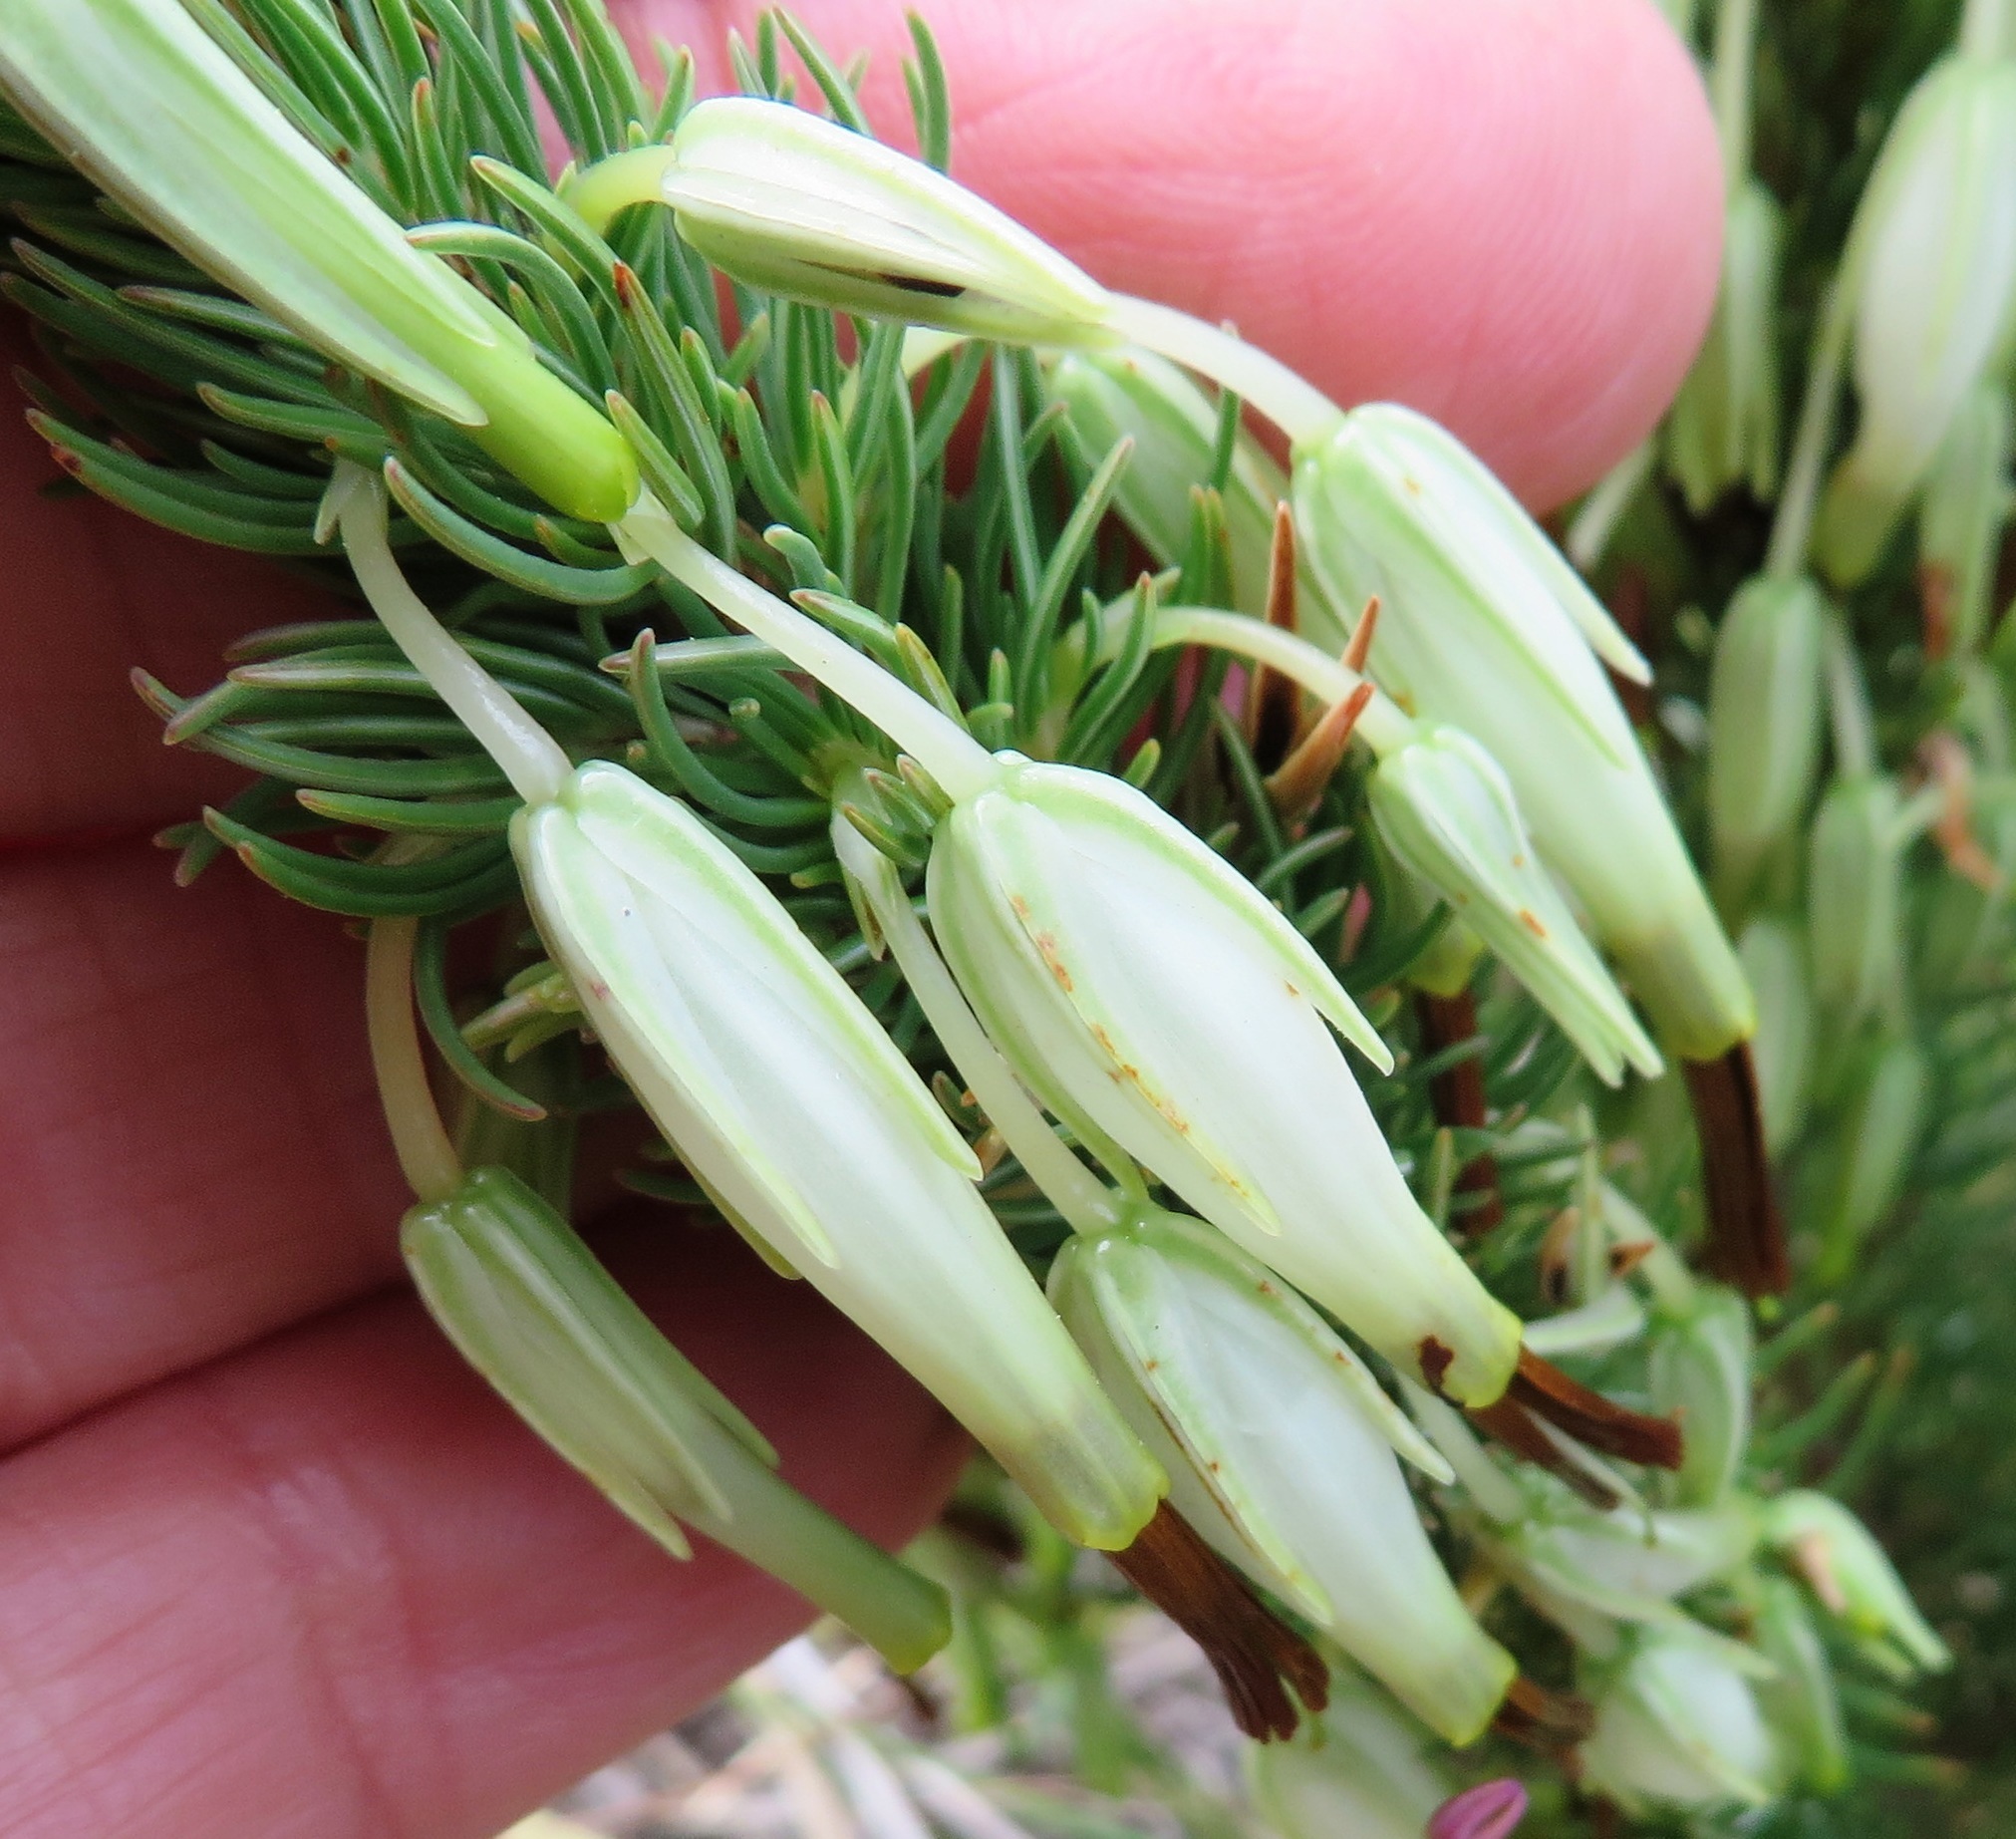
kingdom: Plantae
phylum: Tracheophyta
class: Magnoliopsida
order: Ericales
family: Ericaceae
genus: Erica
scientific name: Erica plukenetii
